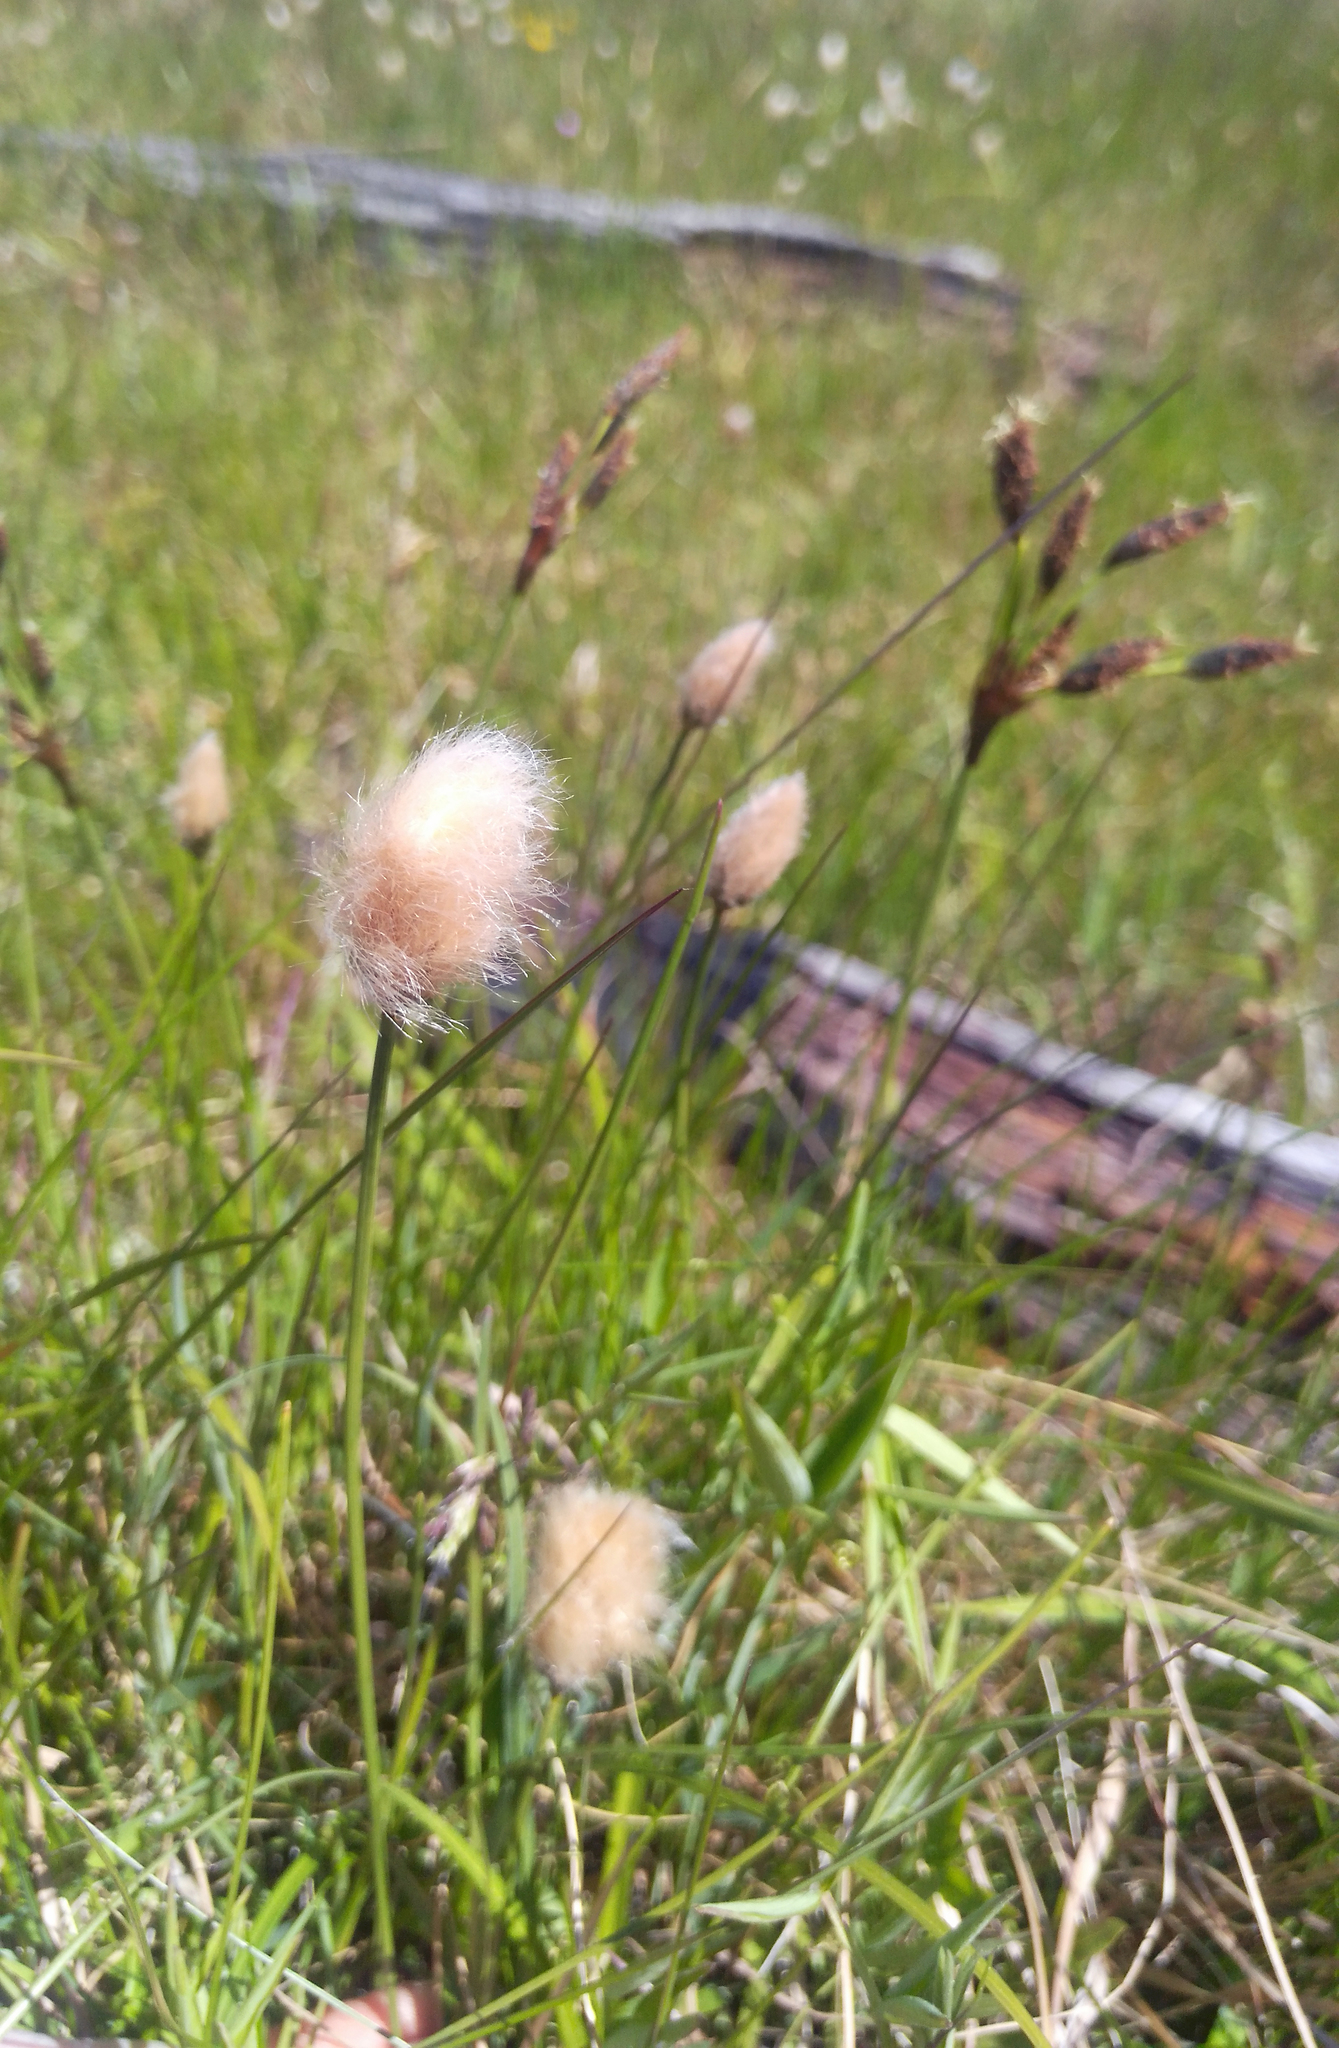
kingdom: Plantae
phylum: Tracheophyta
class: Liliopsida
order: Poales
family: Cyperaceae
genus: Eriophorum
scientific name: Eriophorum chamissonis
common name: Chamisso's cottongrass
